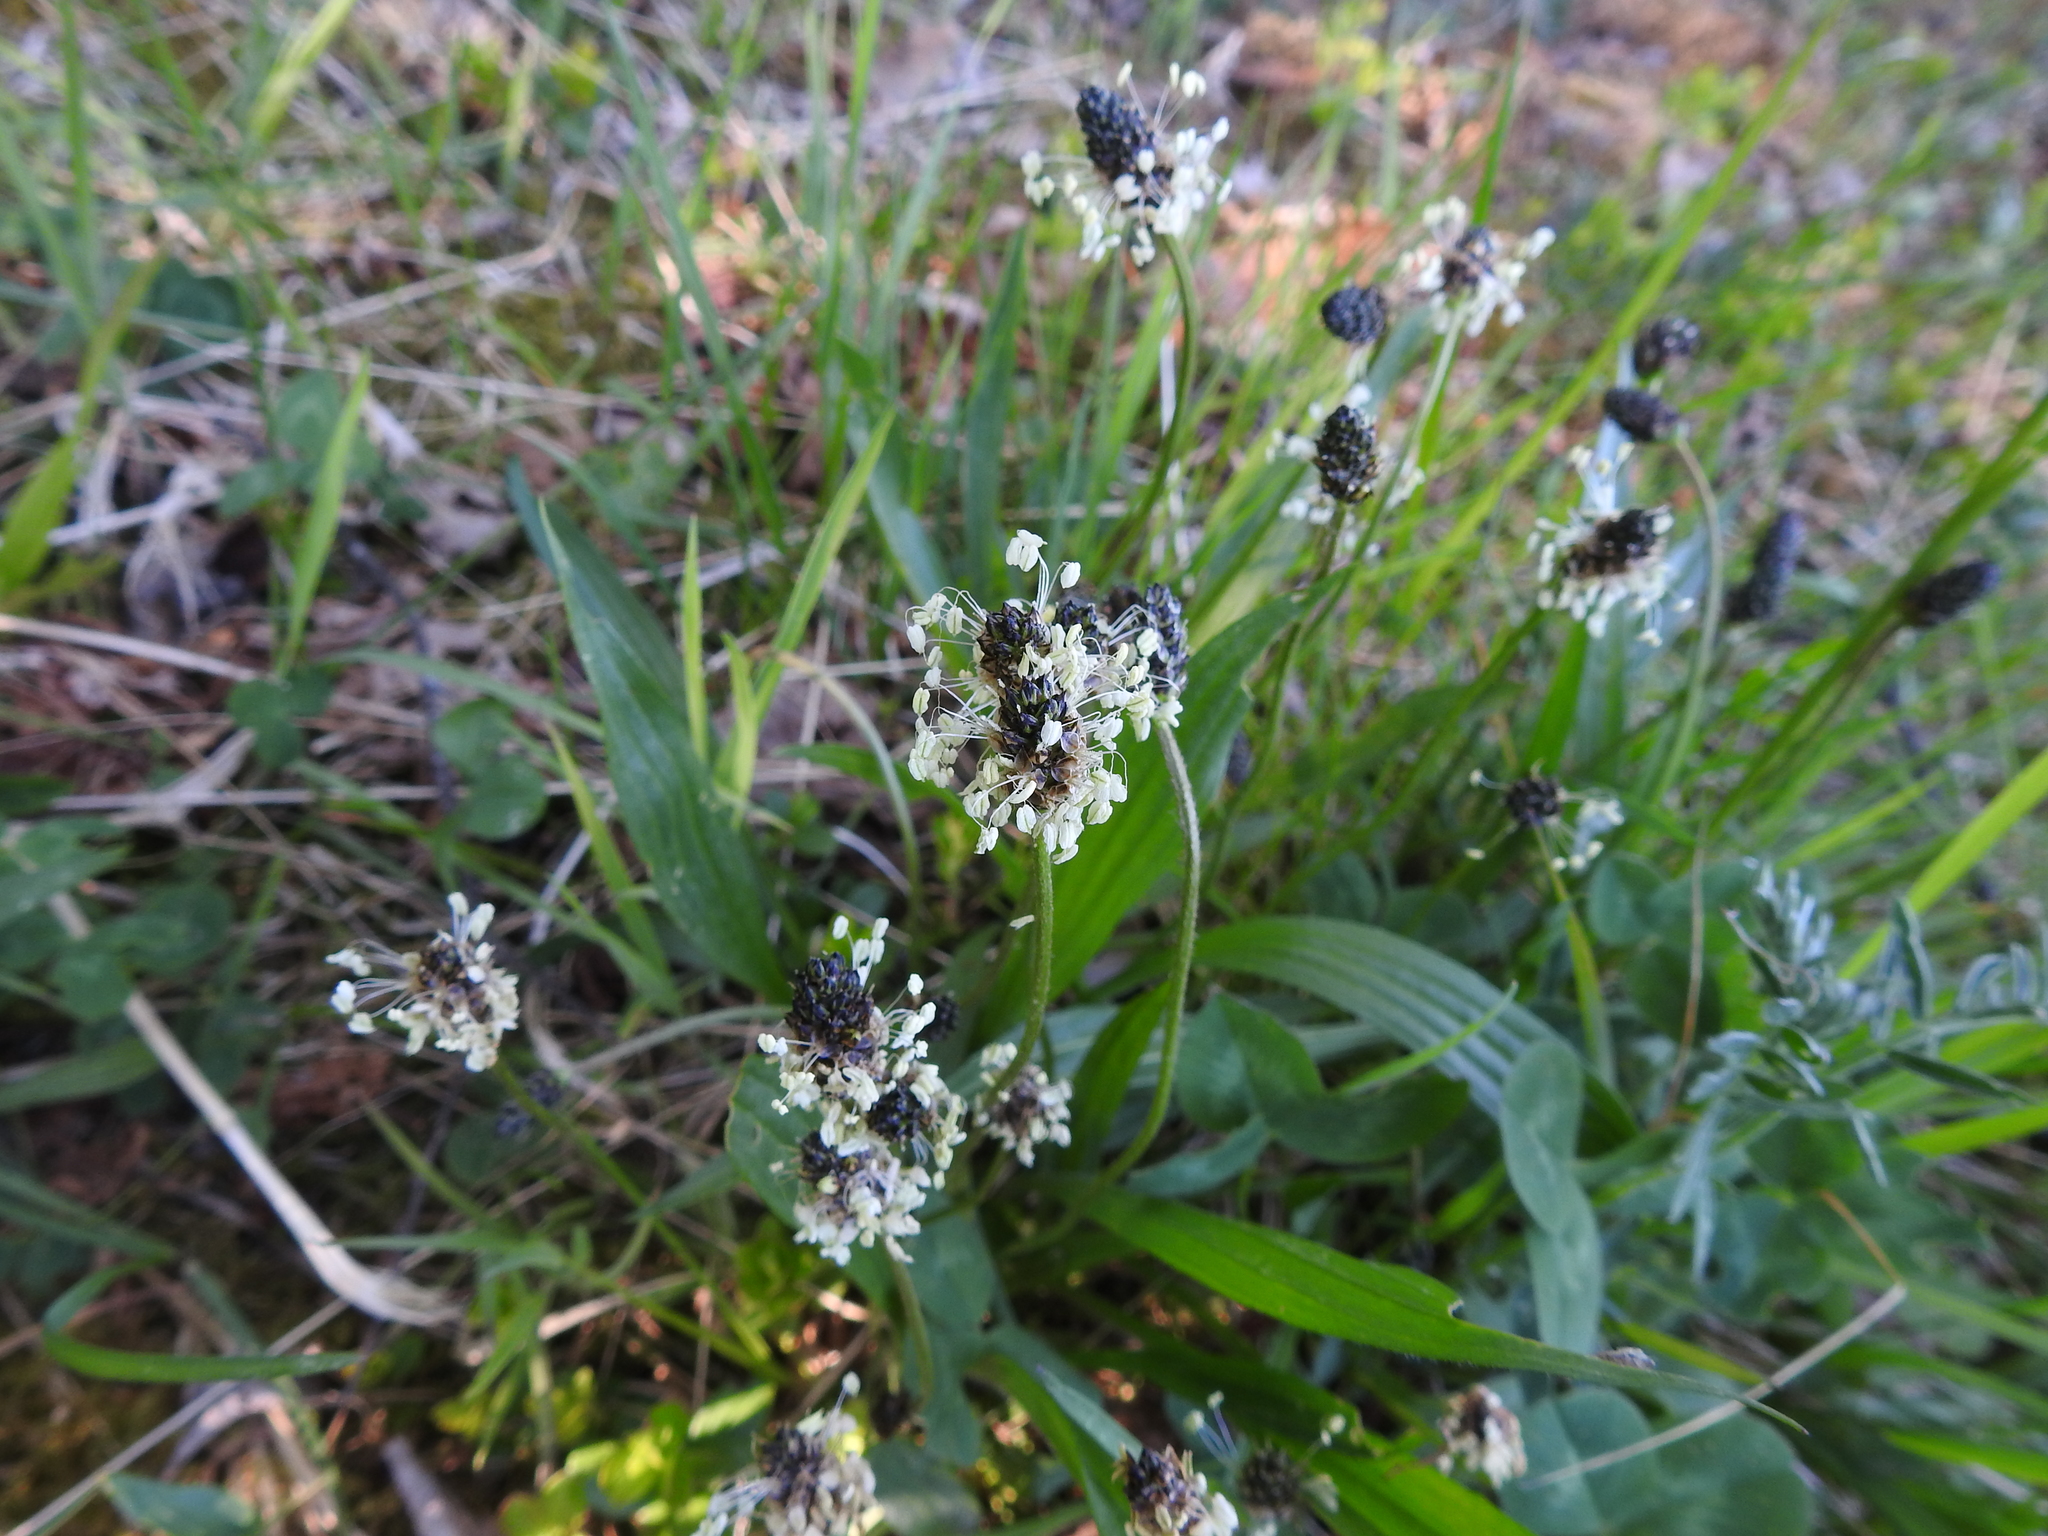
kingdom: Plantae
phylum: Tracheophyta
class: Magnoliopsida
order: Lamiales
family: Plantaginaceae
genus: Plantago
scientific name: Plantago lanceolata
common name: Ribwort plantain
